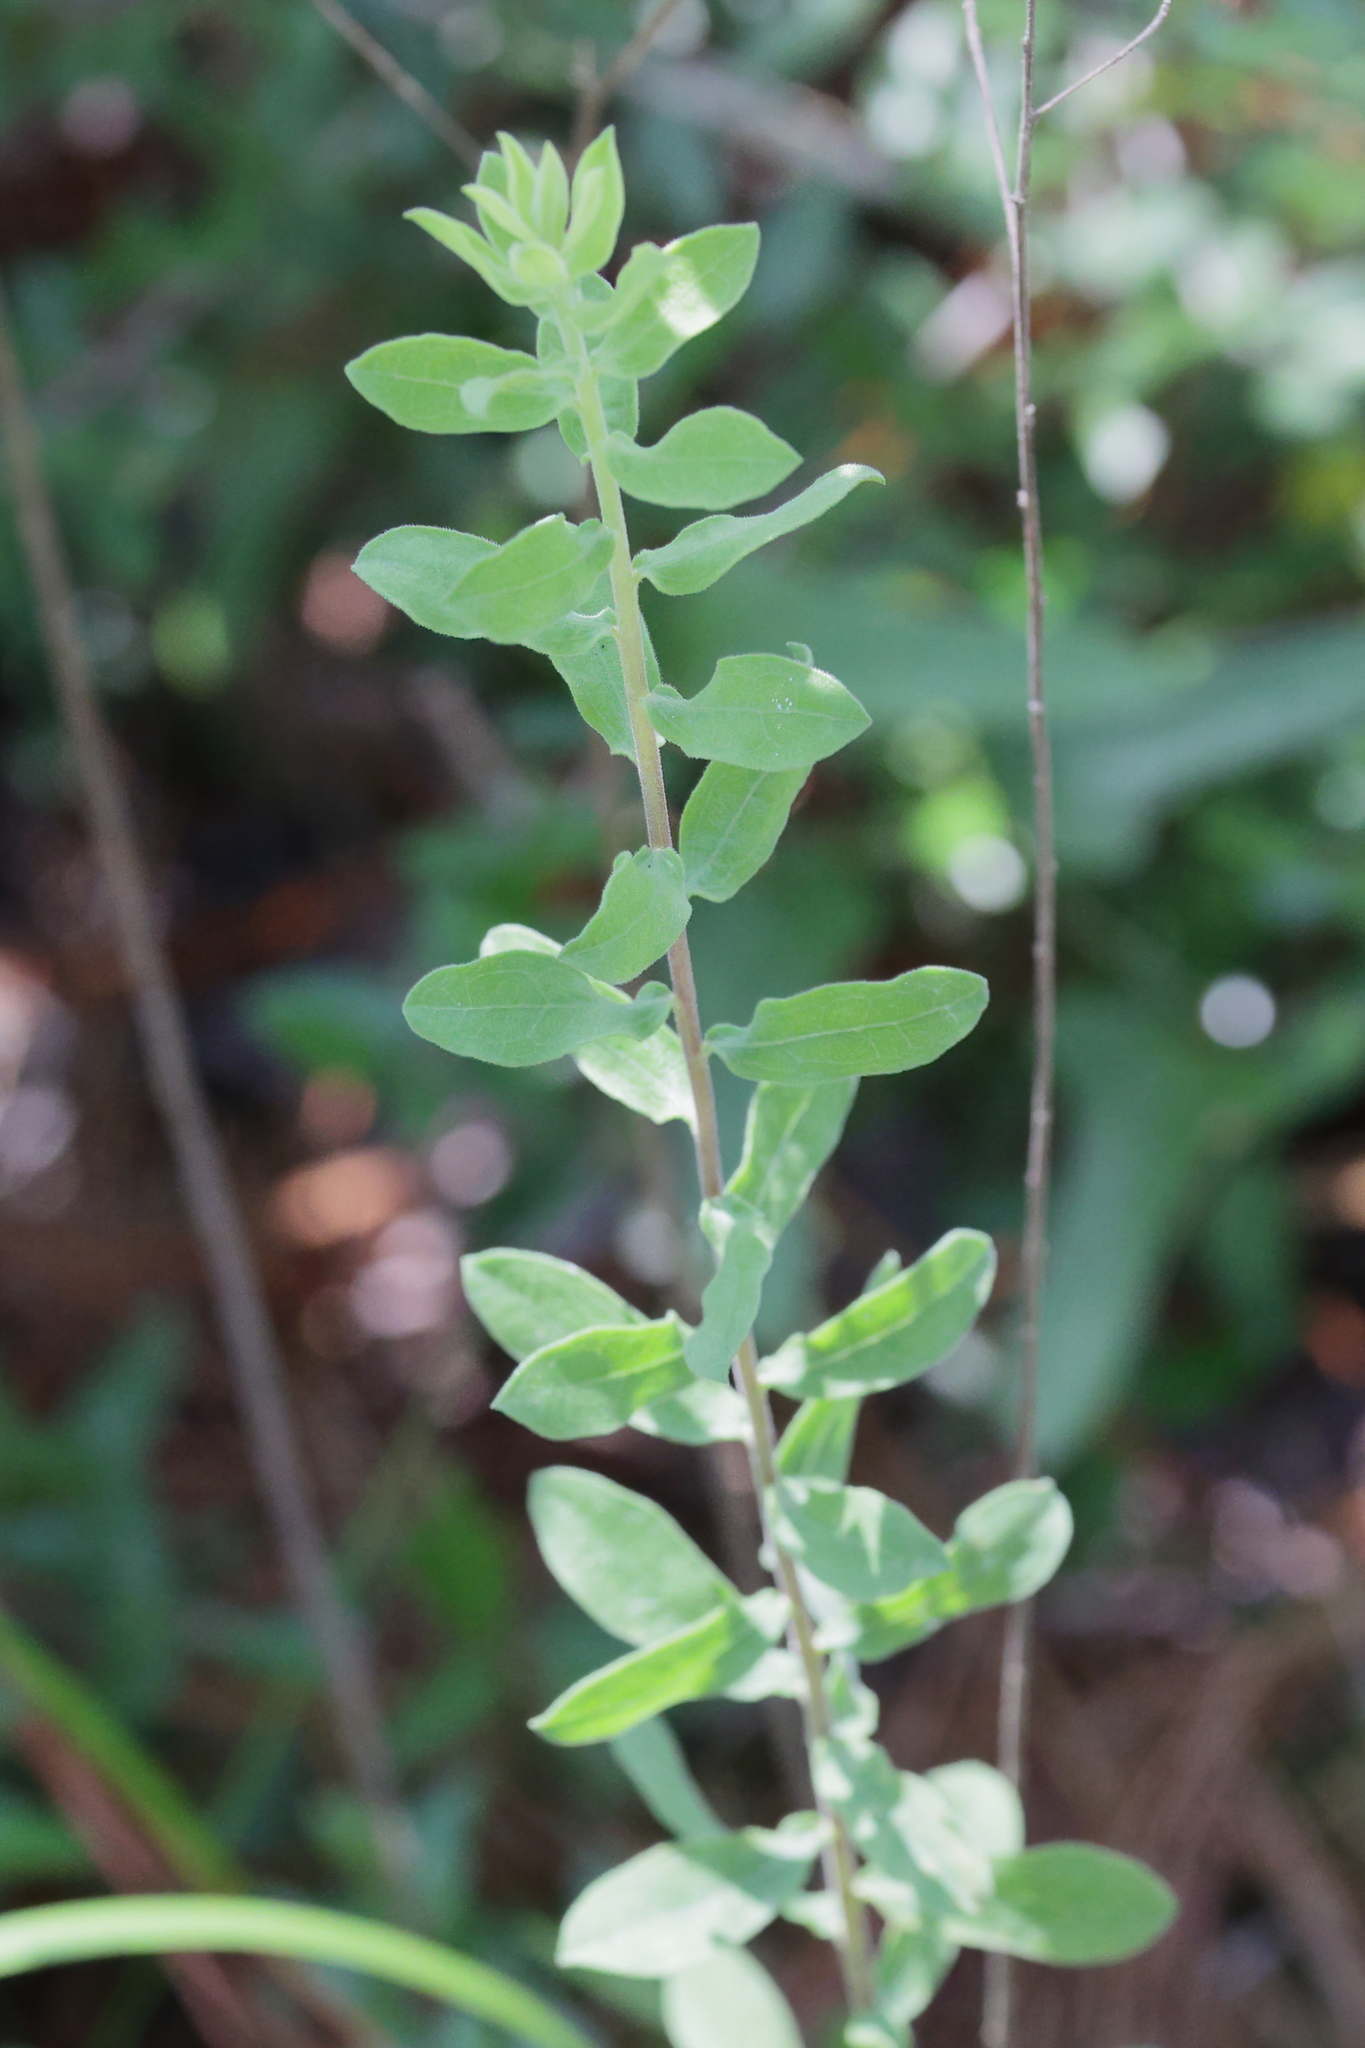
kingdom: Plantae
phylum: Tracheophyta
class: Magnoliopsida
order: Asterales
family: Asteraceae
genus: Sericocarpus
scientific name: Sericocarpus tortifolius
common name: Dixie aster
